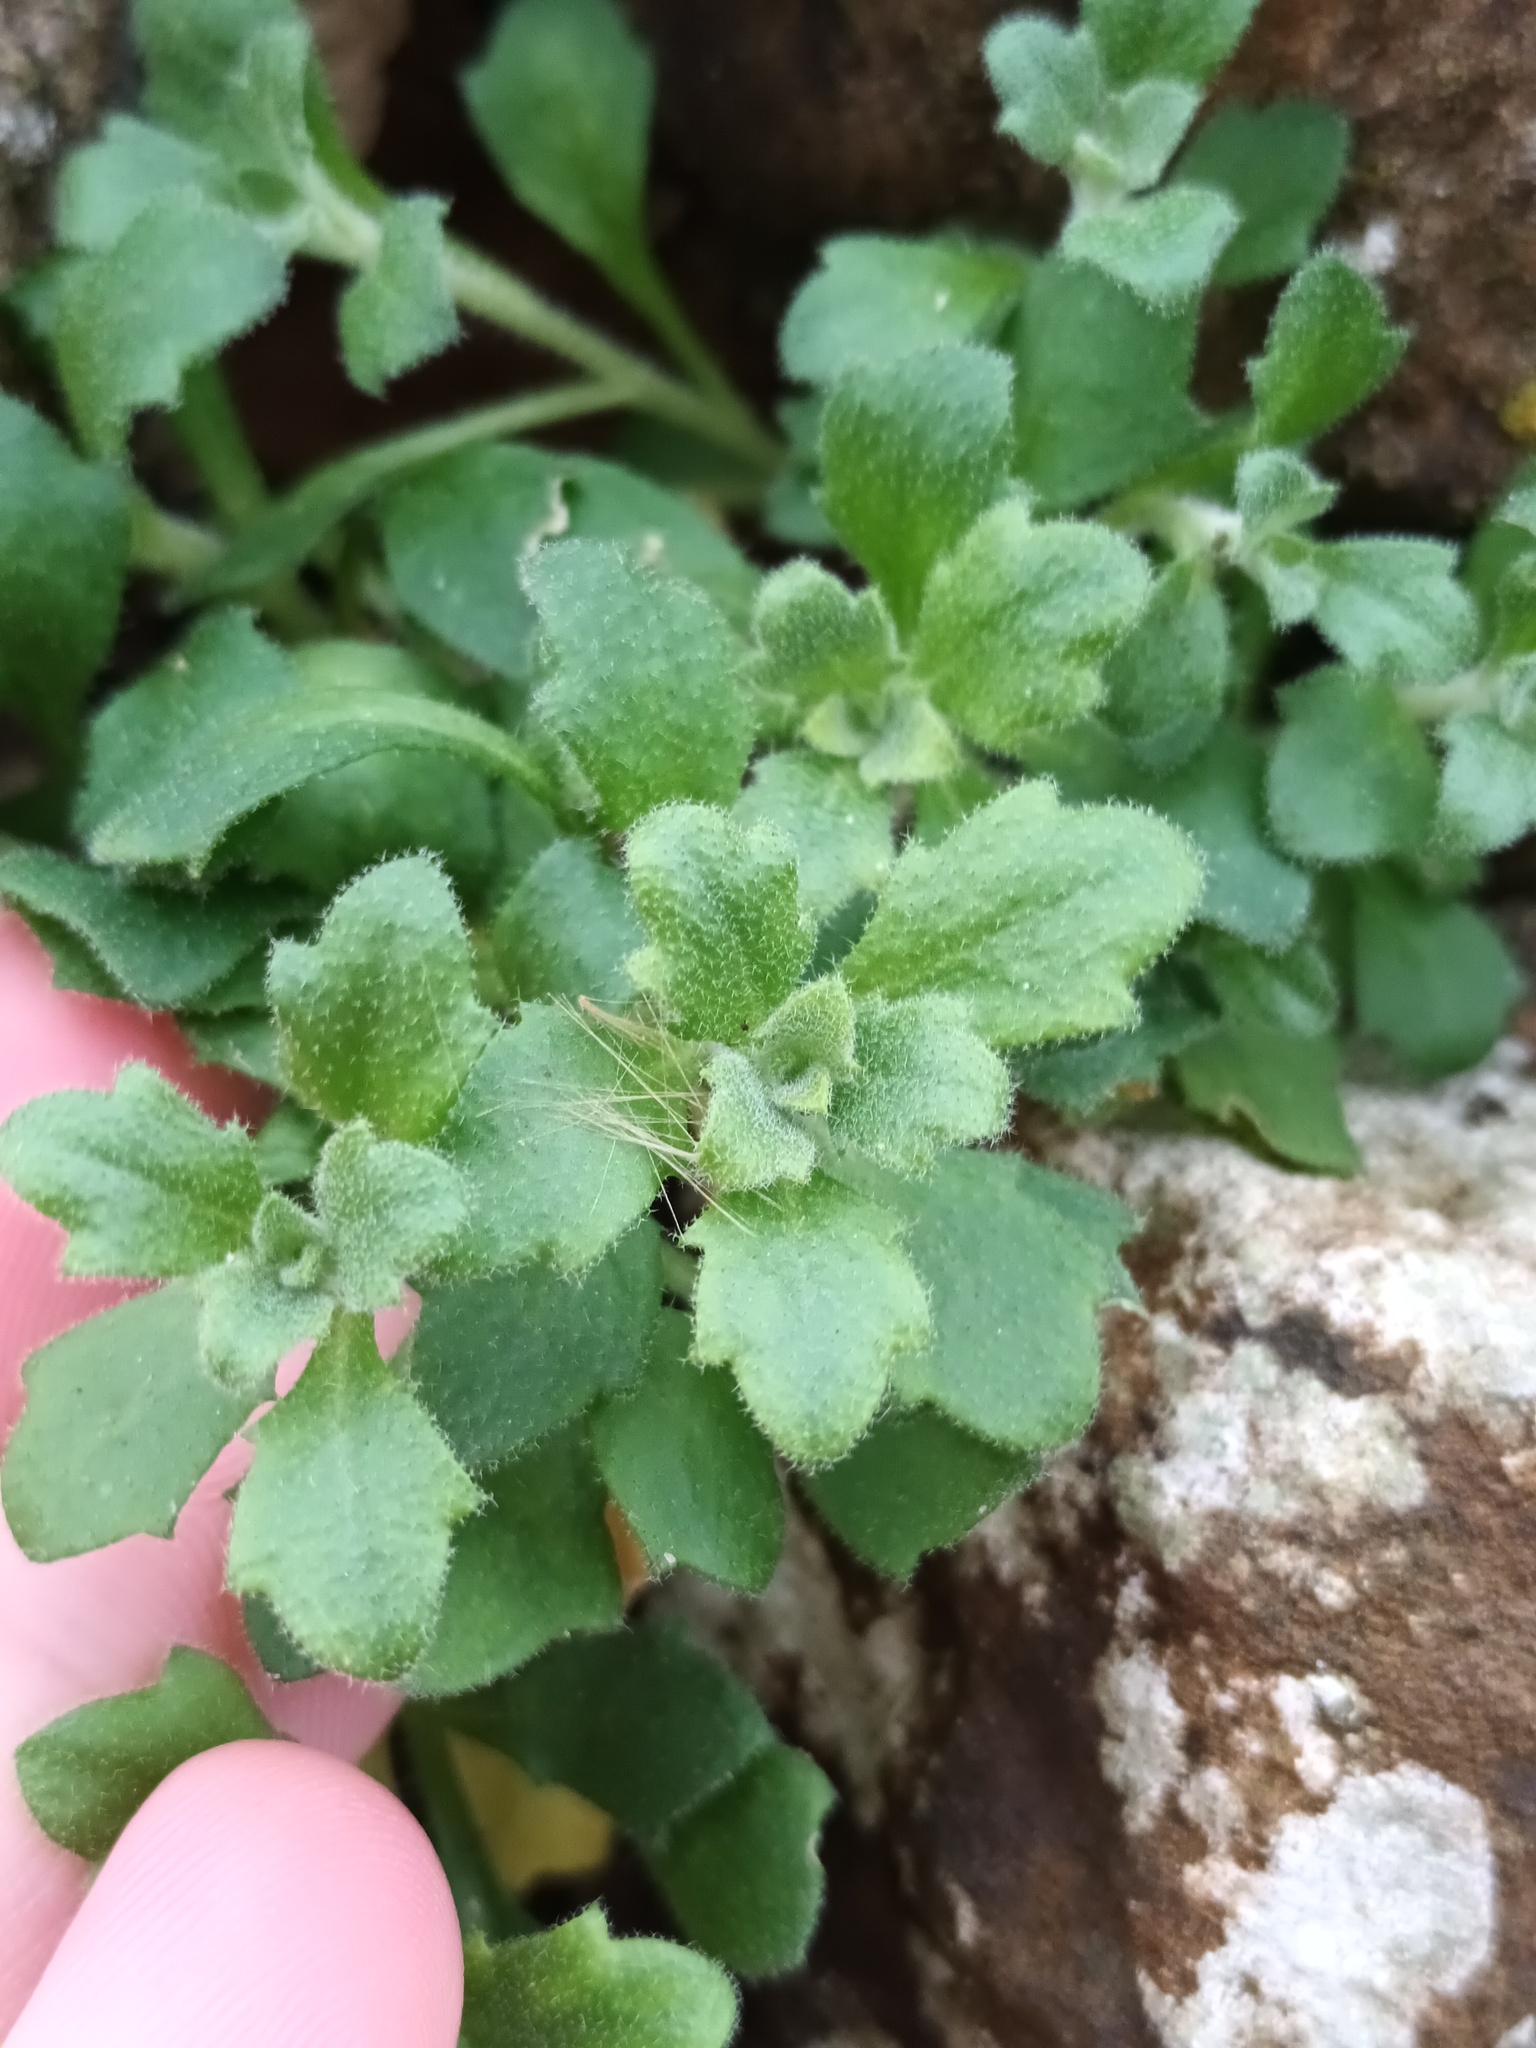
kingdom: Plantae
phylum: Tracheophyta
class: Magnoliopsida
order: Brassicales
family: Brassicaceae
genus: Aubrieta
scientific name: Aubrieta deltoidea
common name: Aubretia
